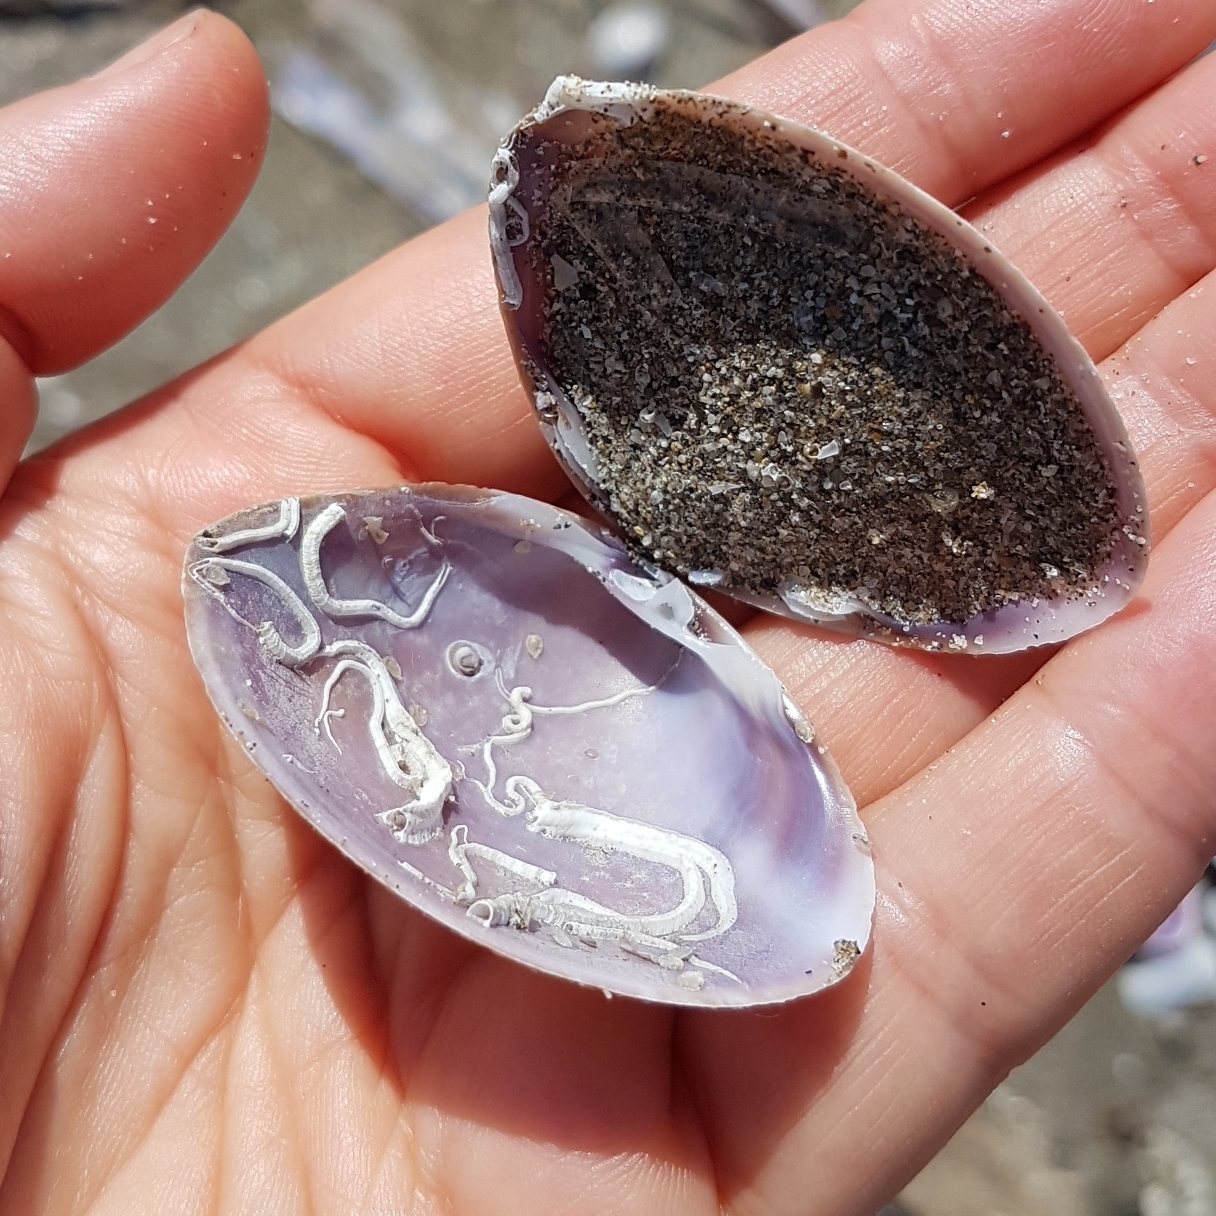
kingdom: Animalia
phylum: Mollusca
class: Bivalvia
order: Venerida
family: Mactridae
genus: Mactra
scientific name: Mactra stultorum
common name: Rayed trough shell
